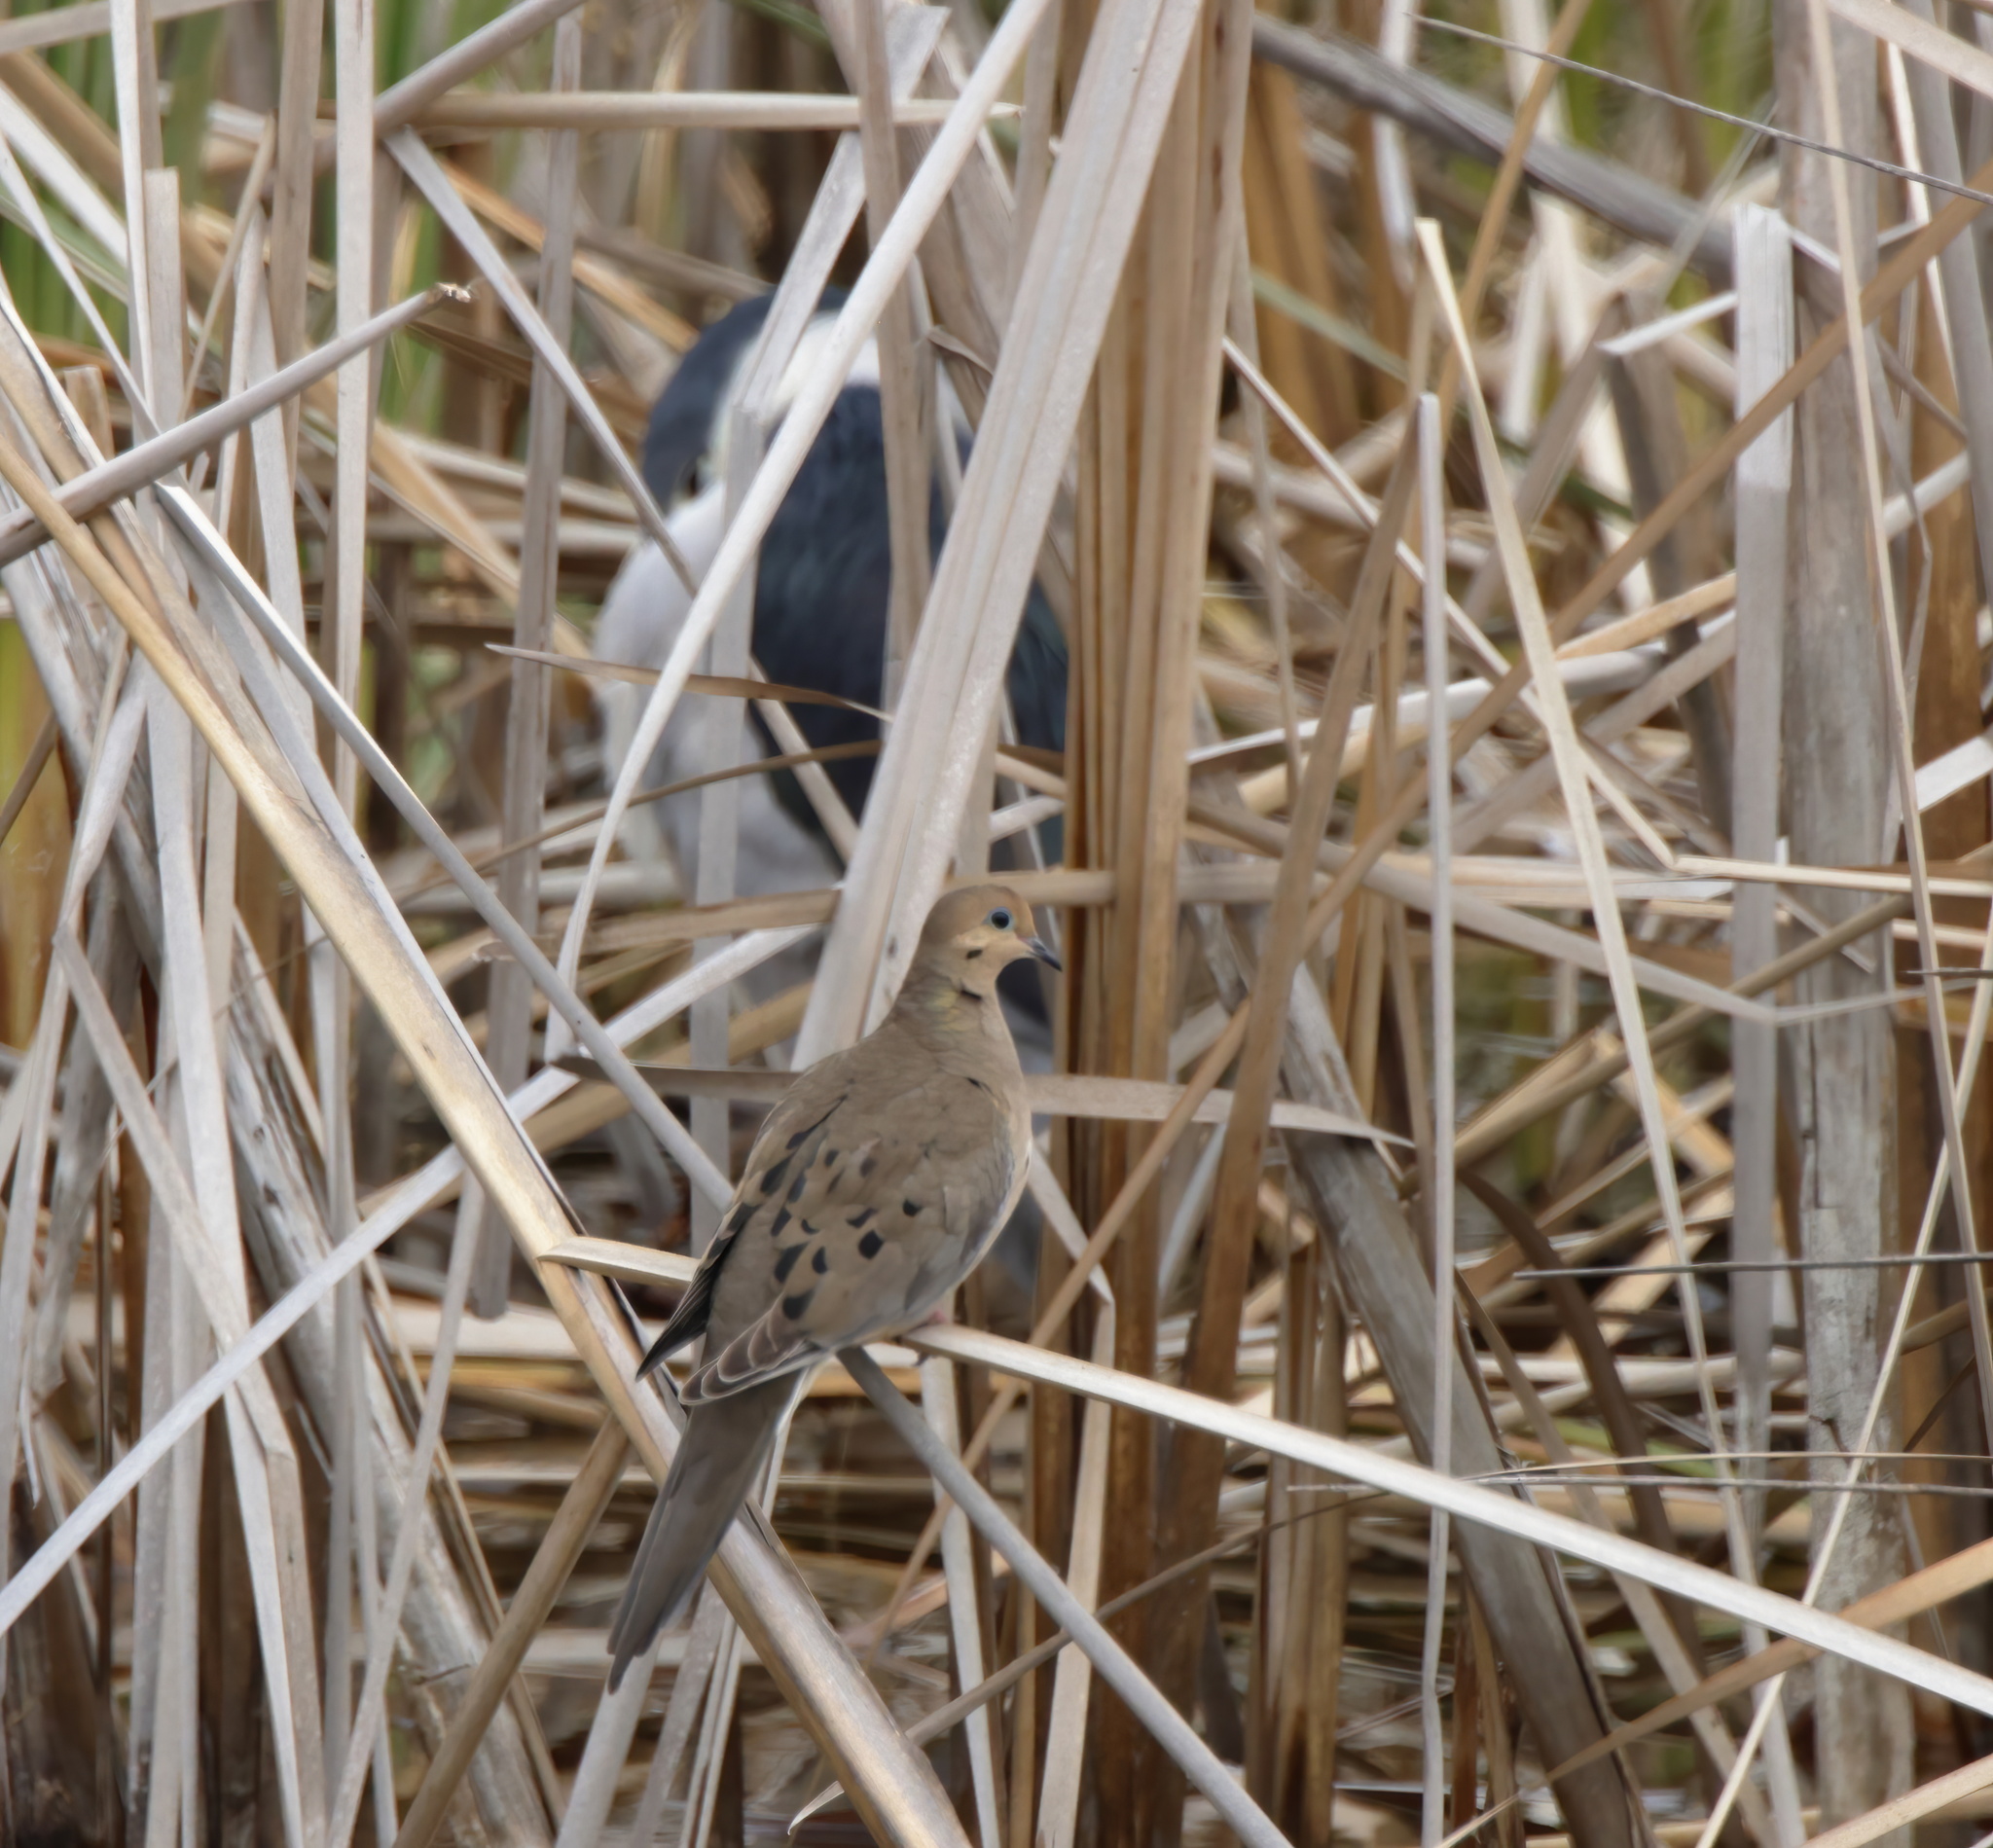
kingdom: Animalia
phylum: Chordata
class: Aves
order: Columbiformes
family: Columbidae
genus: Zenaida
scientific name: Zenaida macroura
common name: Mourning dove
